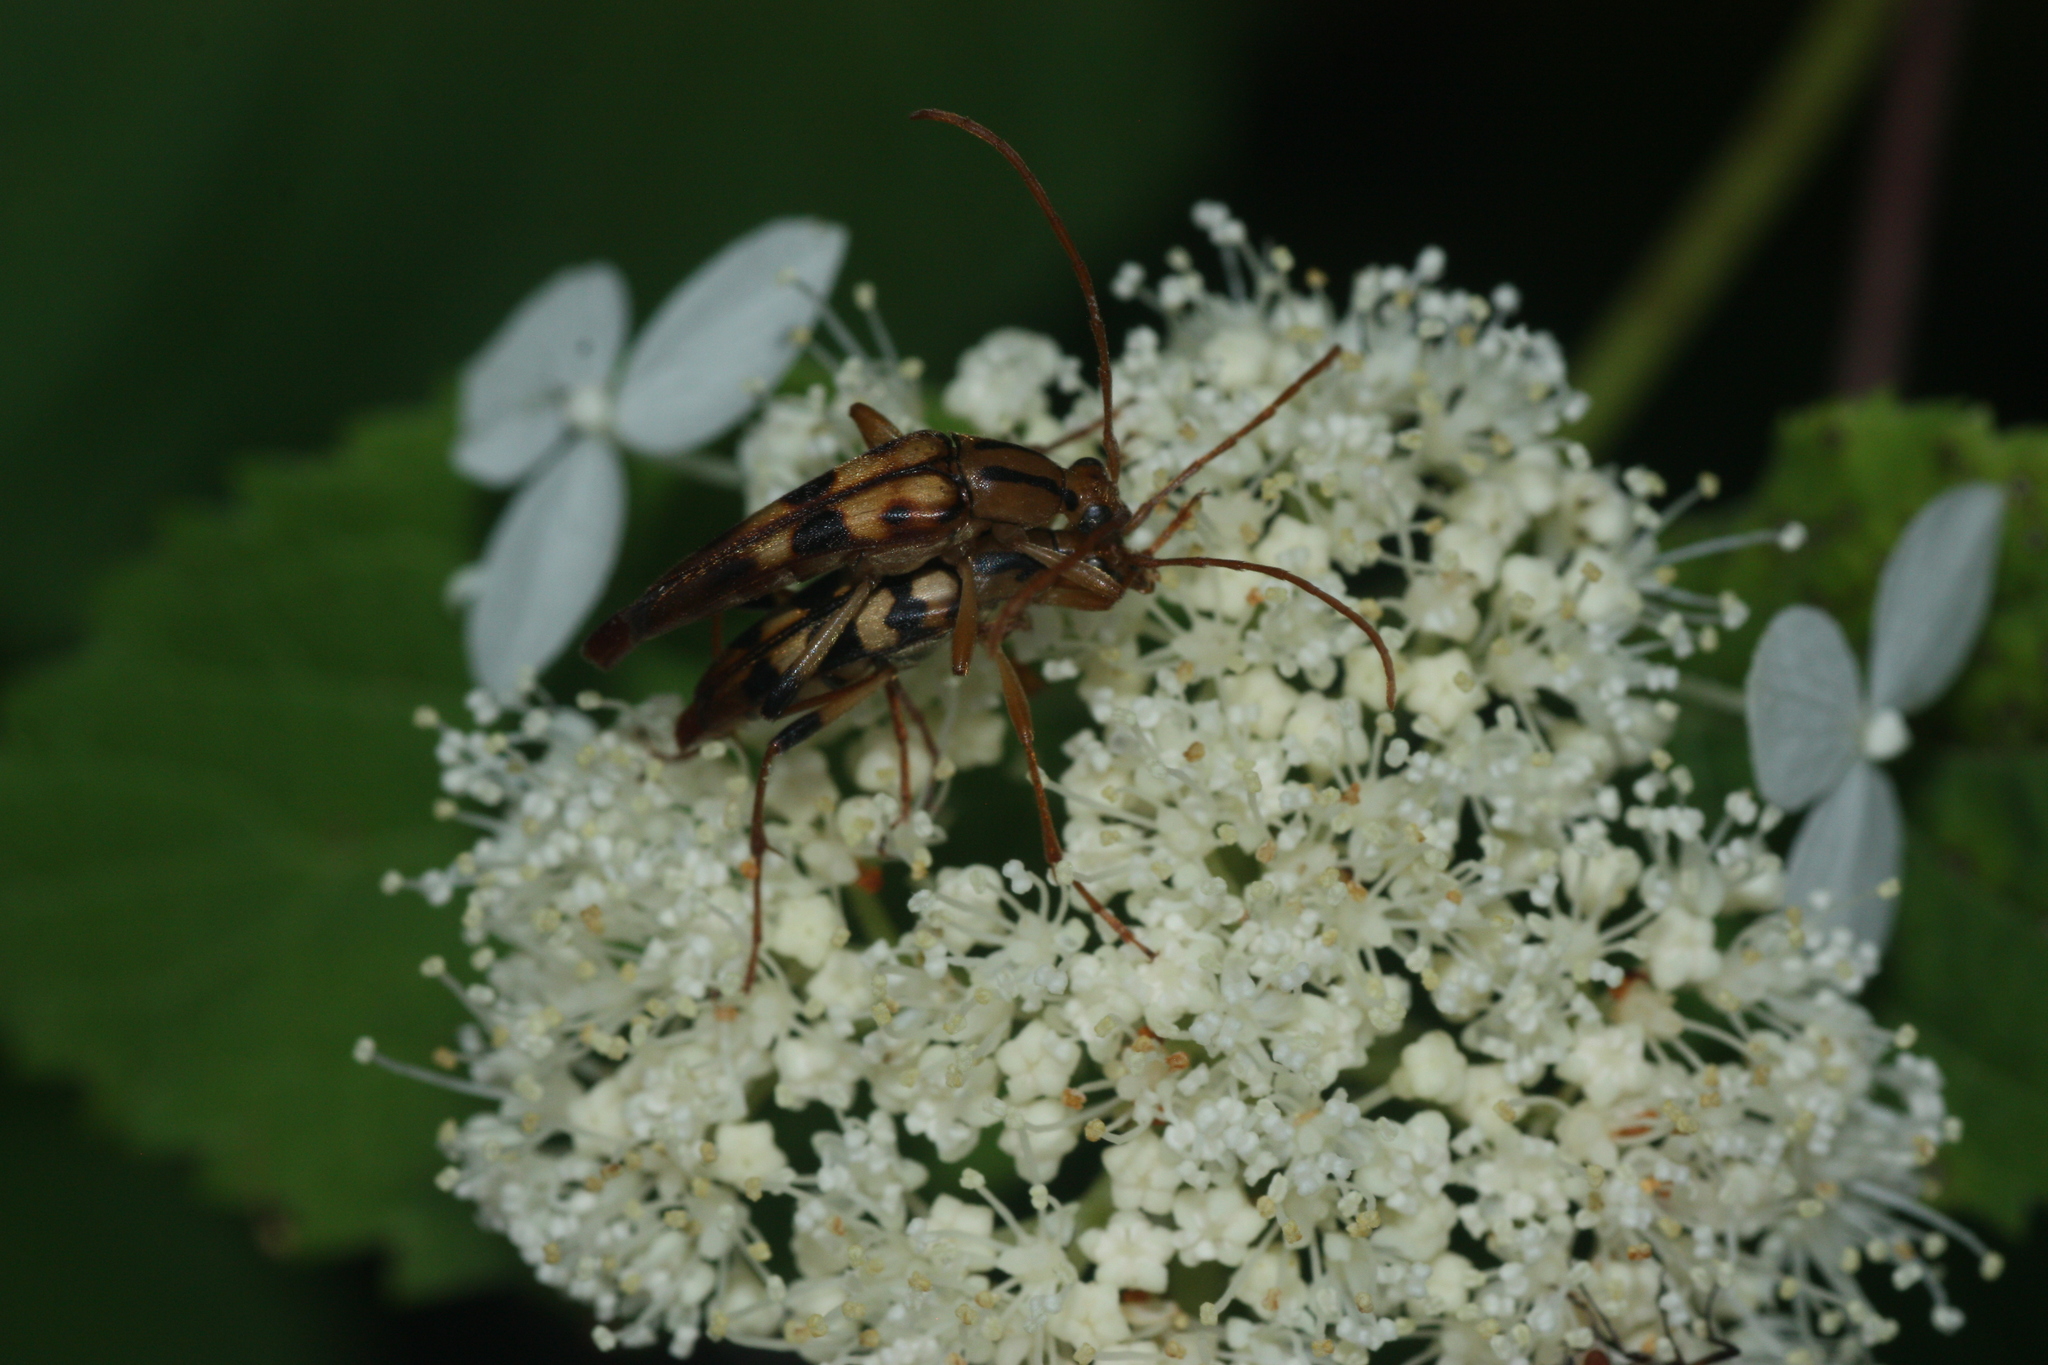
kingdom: Animalia
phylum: Arthropoda
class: Insecta
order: Coleoptera
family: Cerambycidae
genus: Strangalia
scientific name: Strangalia luteicornis
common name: Yellow-horned flower longhorn beetle
